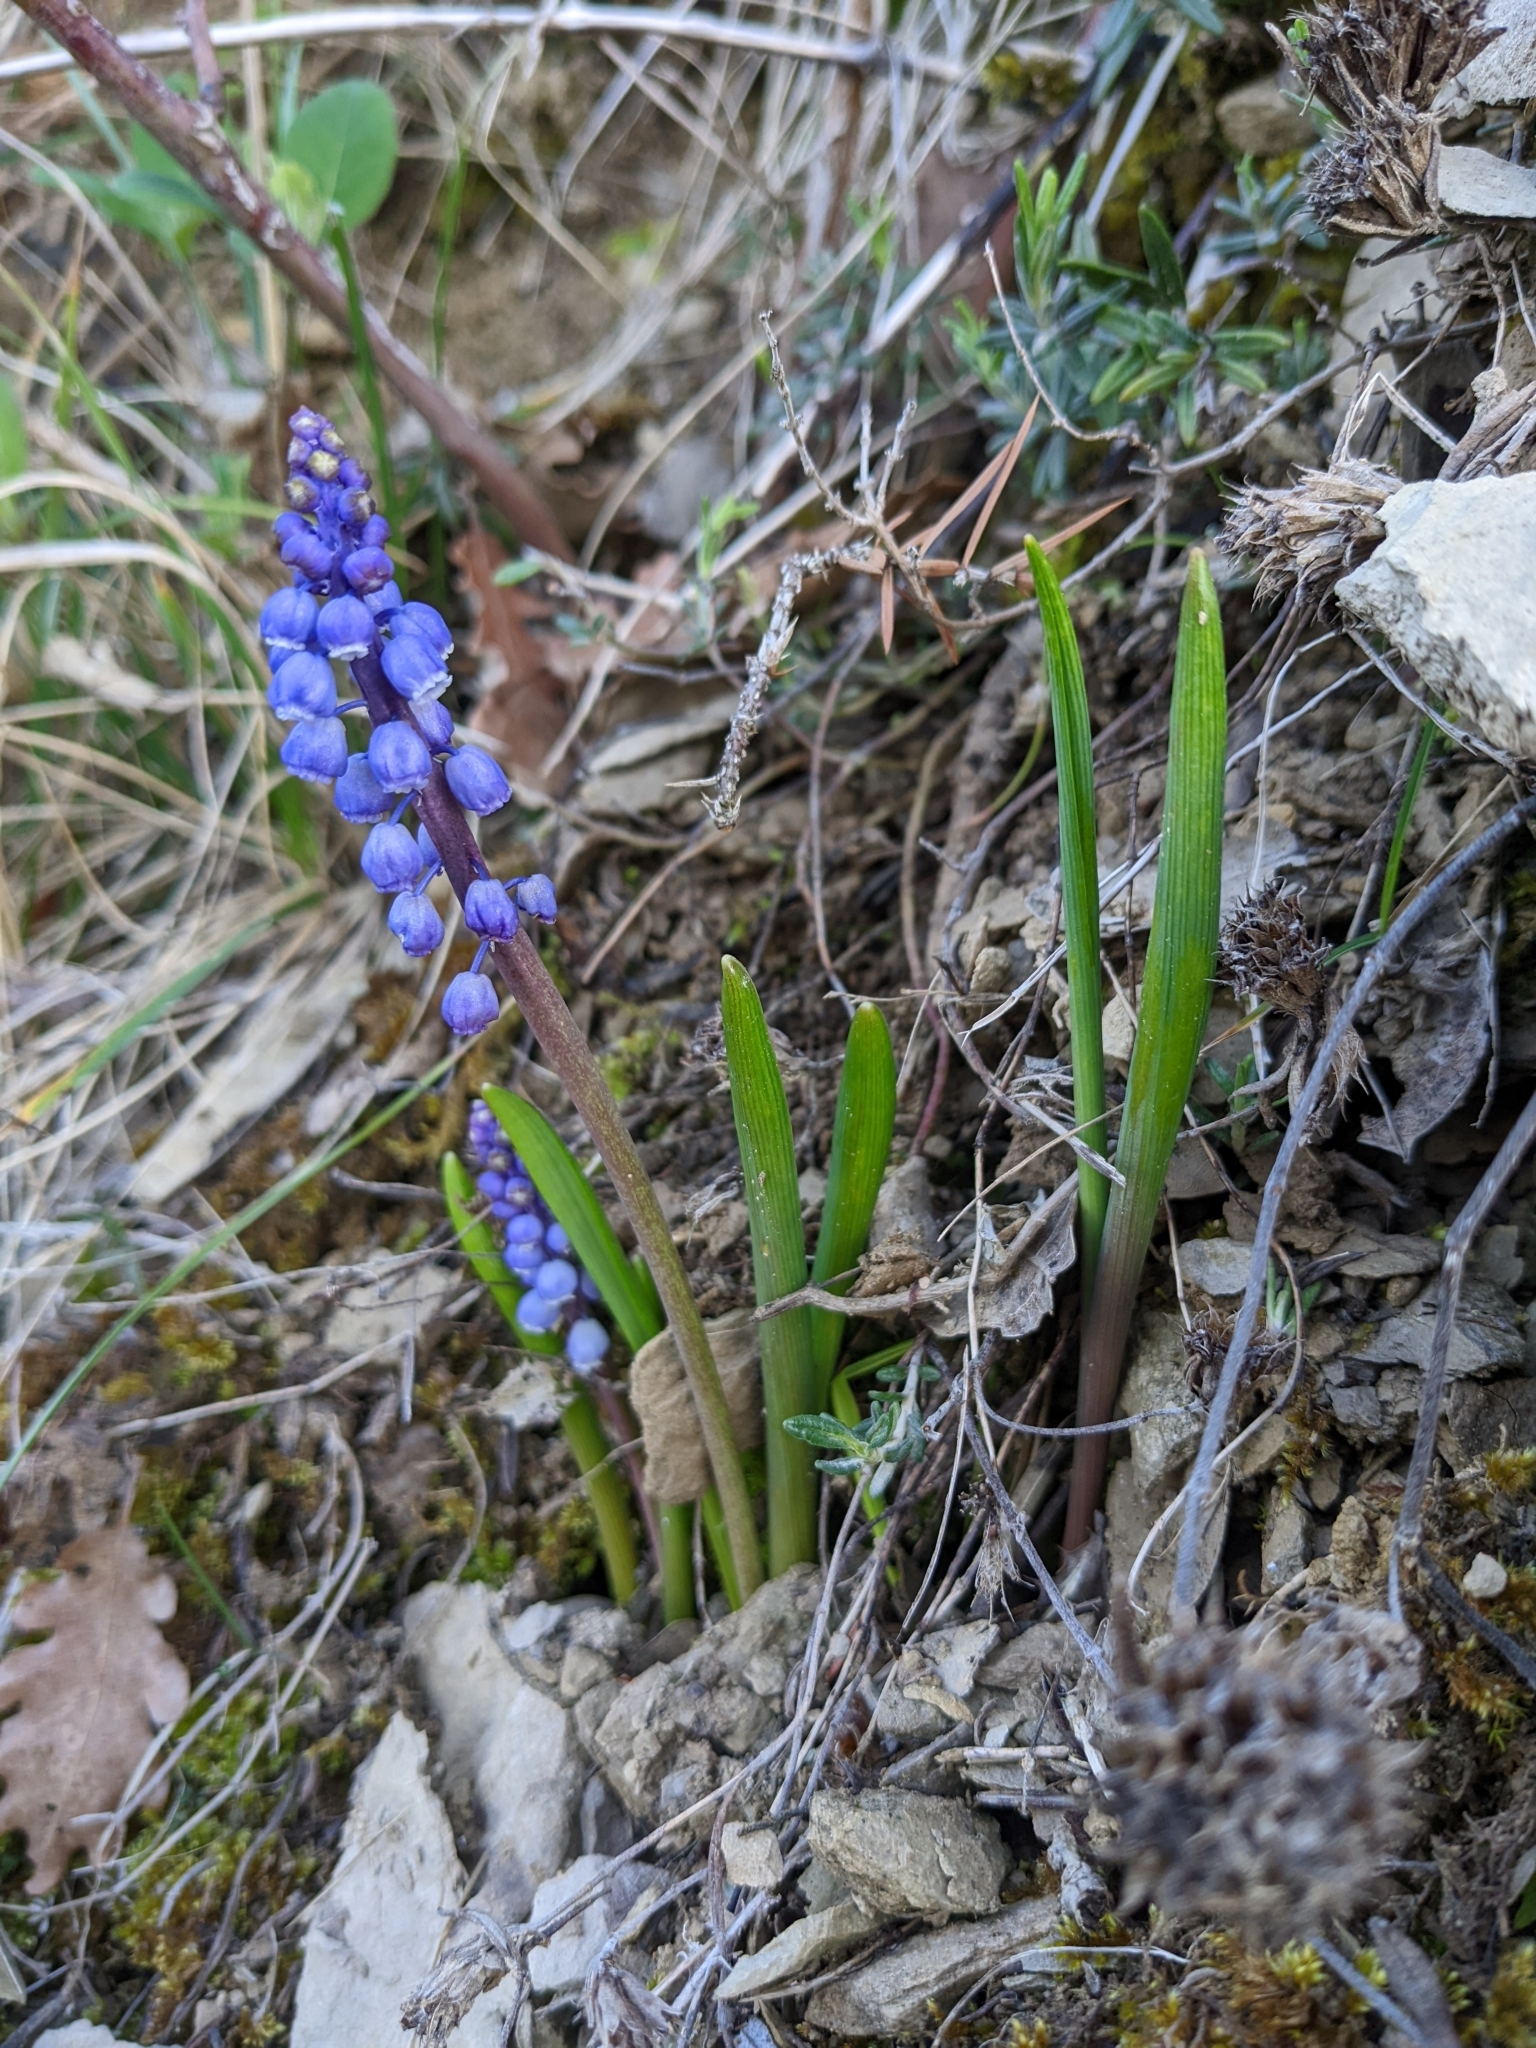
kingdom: Plantae
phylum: Tracheophyta
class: Liliopsida
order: Asparagales
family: Asparagaceae
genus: Muscari
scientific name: Muscari botryoides
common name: Compact grape-hyacinth
